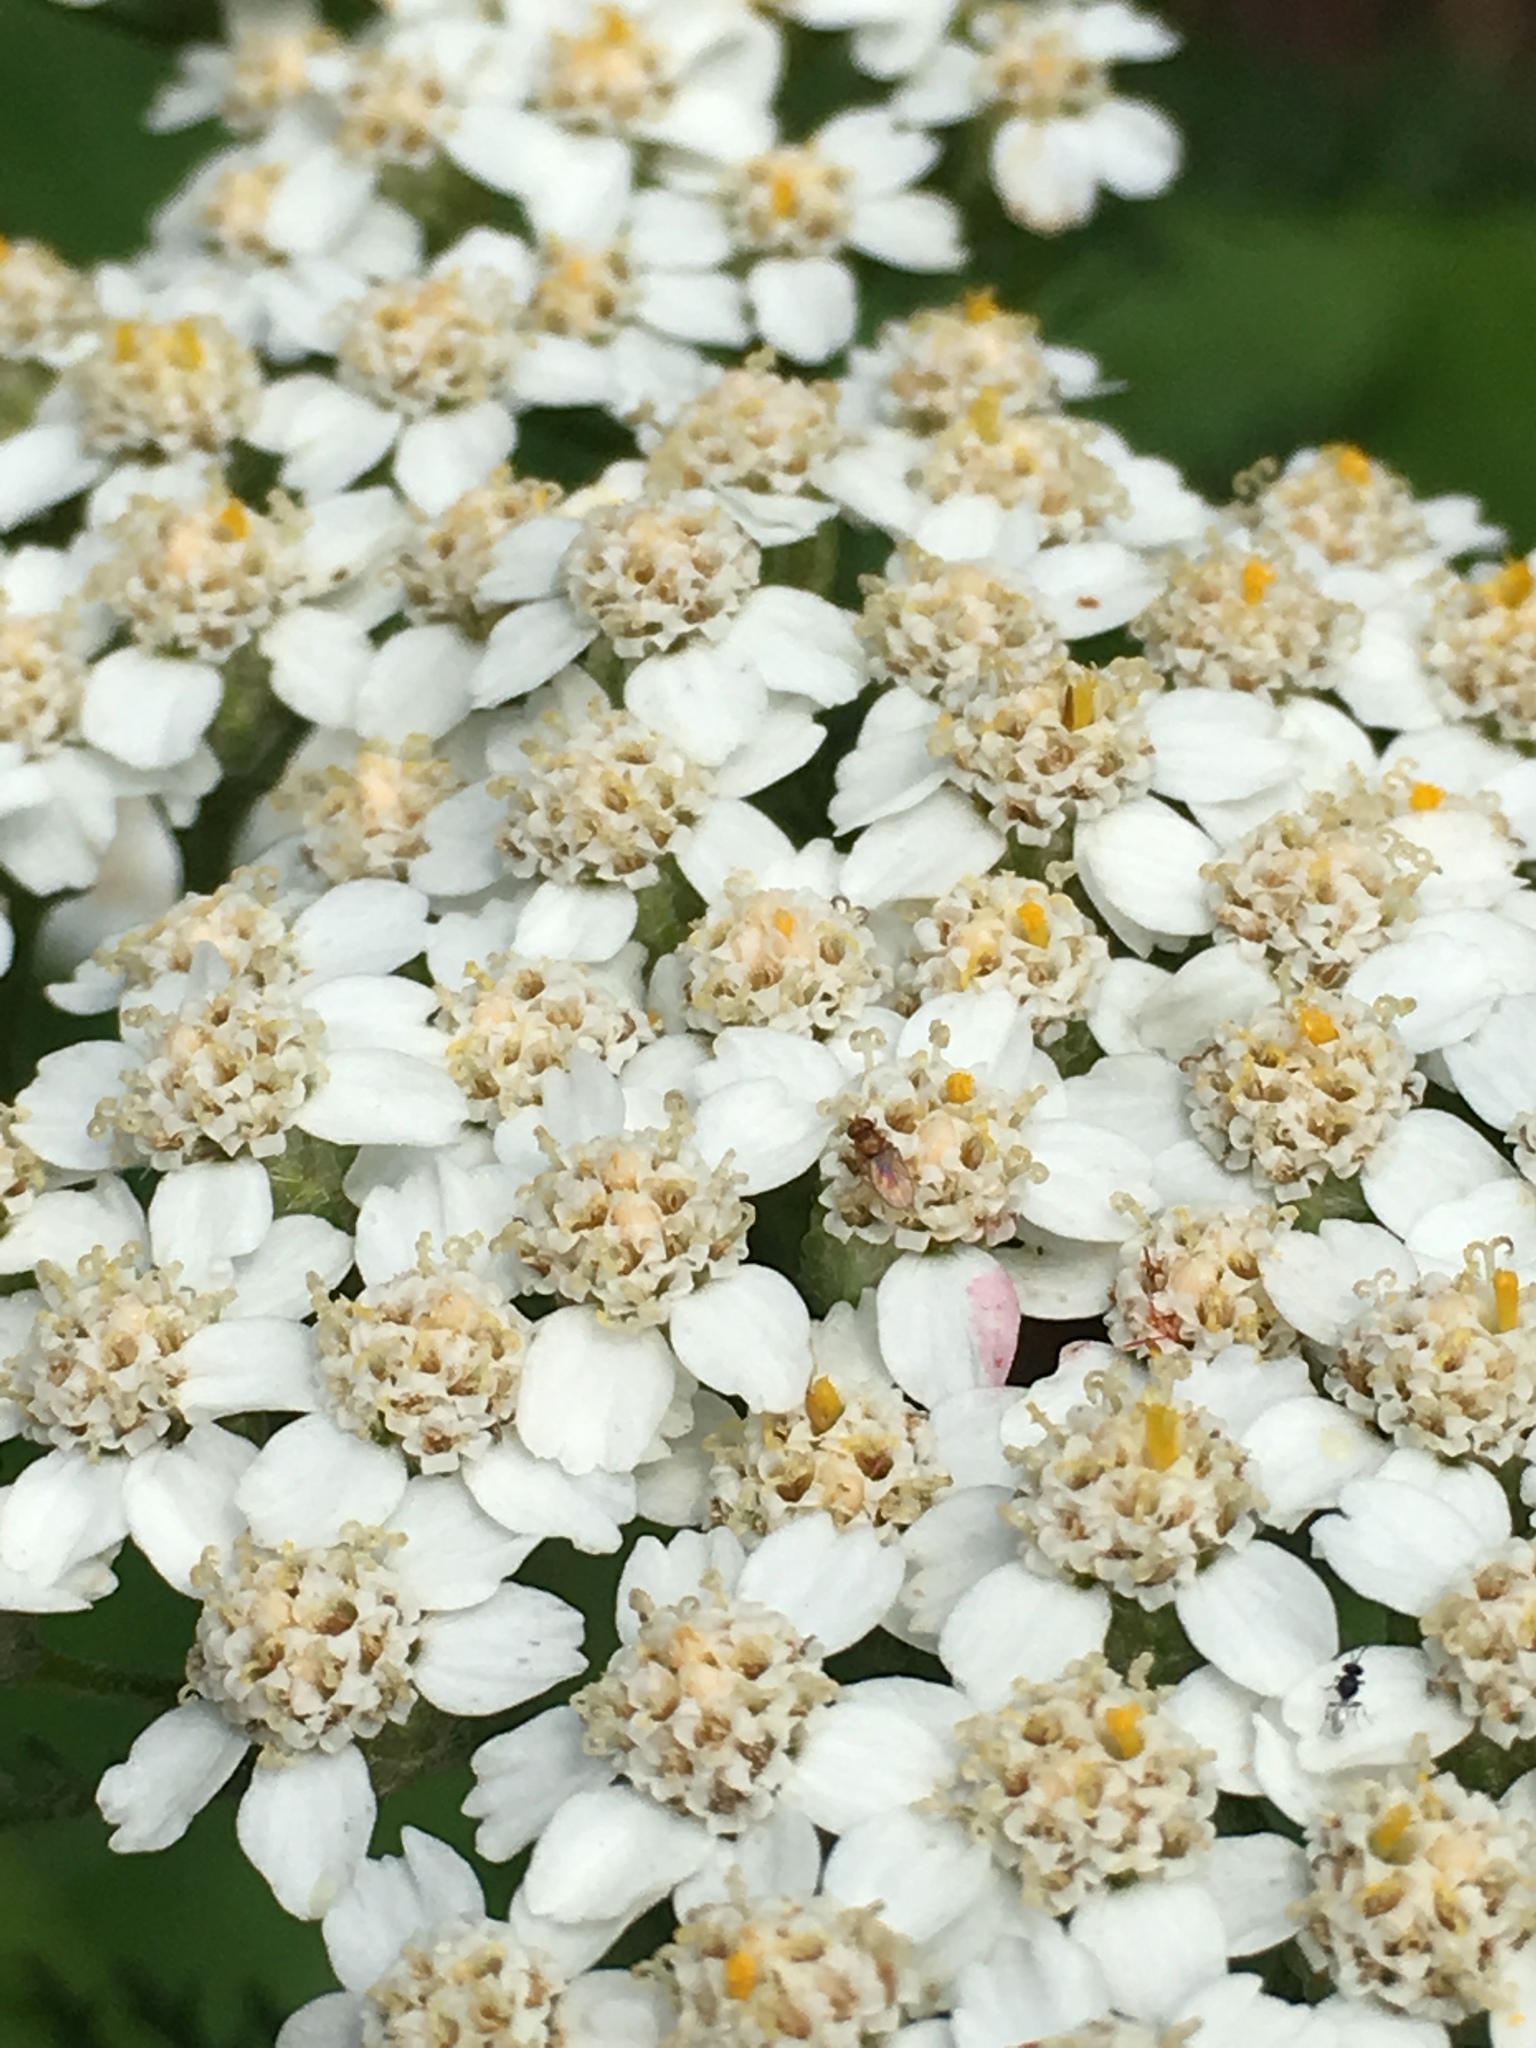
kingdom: Plantae
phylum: Tracheophyta
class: Magnoliopsida
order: Asterales
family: Asteraceae
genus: Achillea
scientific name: Achillea millefolium
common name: Yarrow
